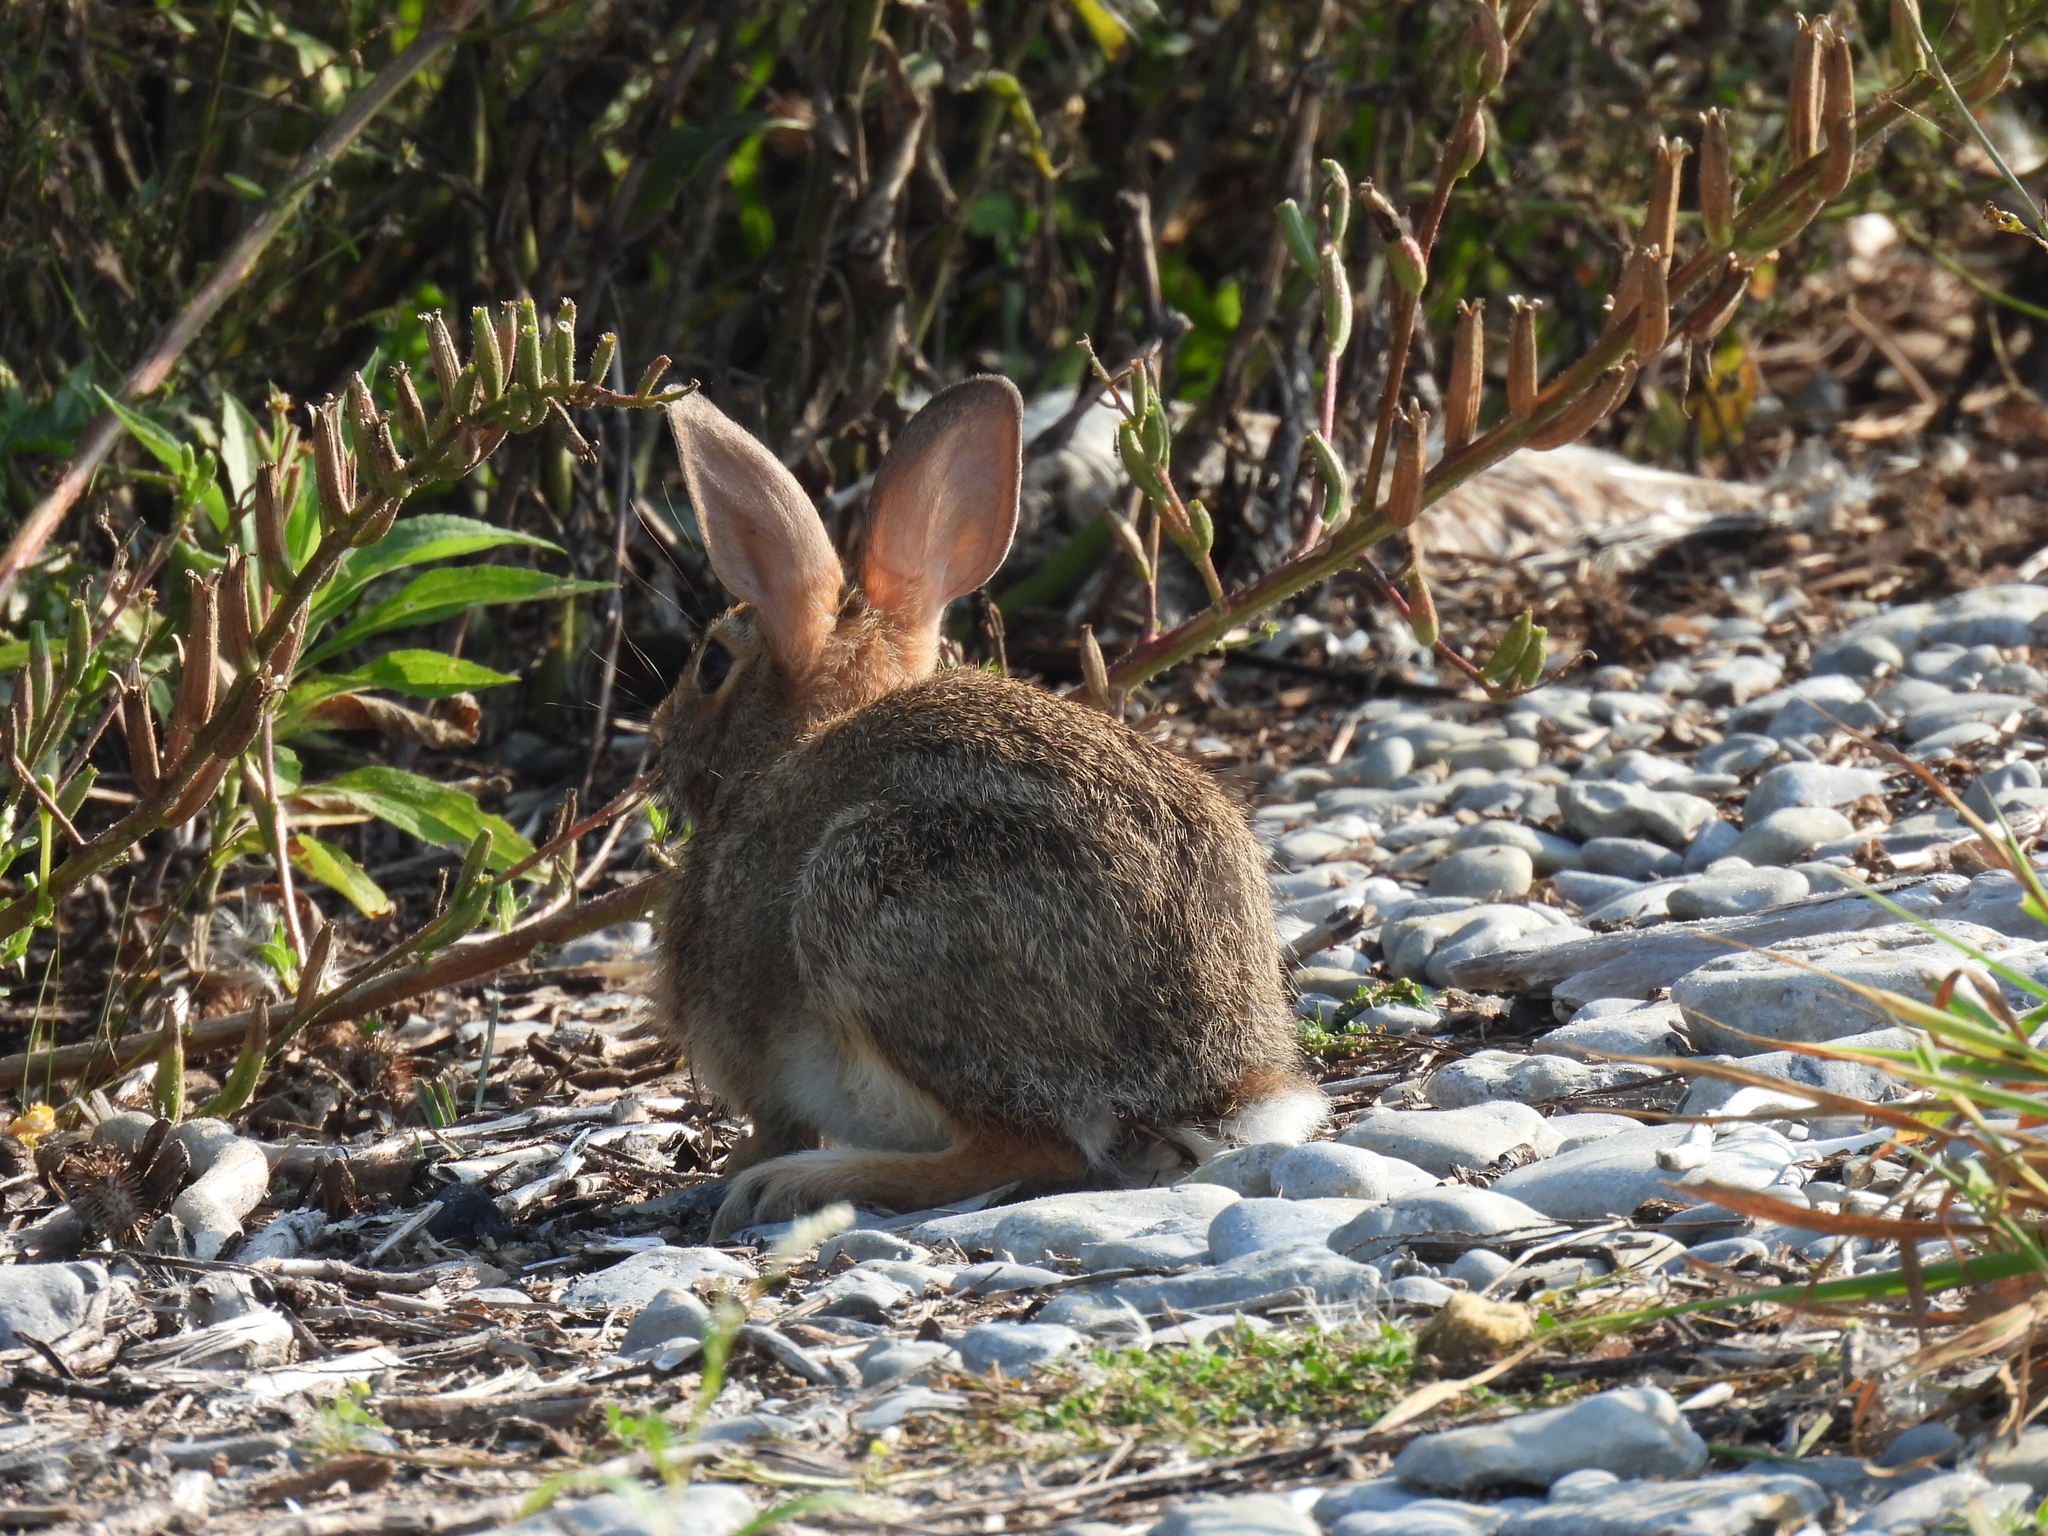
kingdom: Animalia
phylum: Chordata
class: Mammalia
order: Lagomorpha
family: Leporidae
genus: Sylvilagus
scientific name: Sylvilagus floridanus
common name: Eastern cottontail
